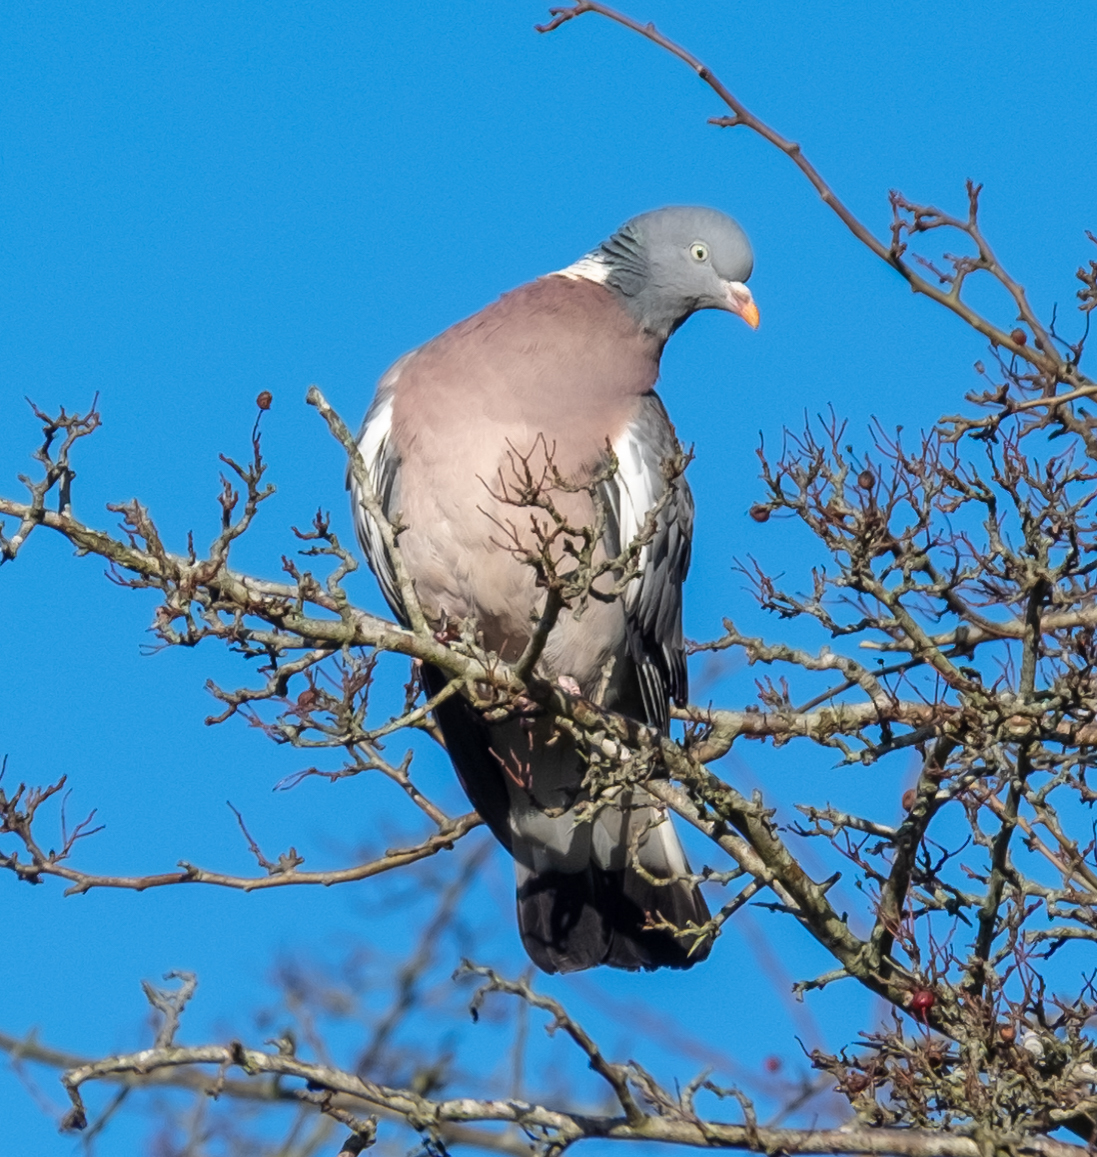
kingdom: Animalia
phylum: Chordata
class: Aves
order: Columbiformes
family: Columbidae
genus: Columba
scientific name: Columba palumbus
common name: Common wood pigeon
